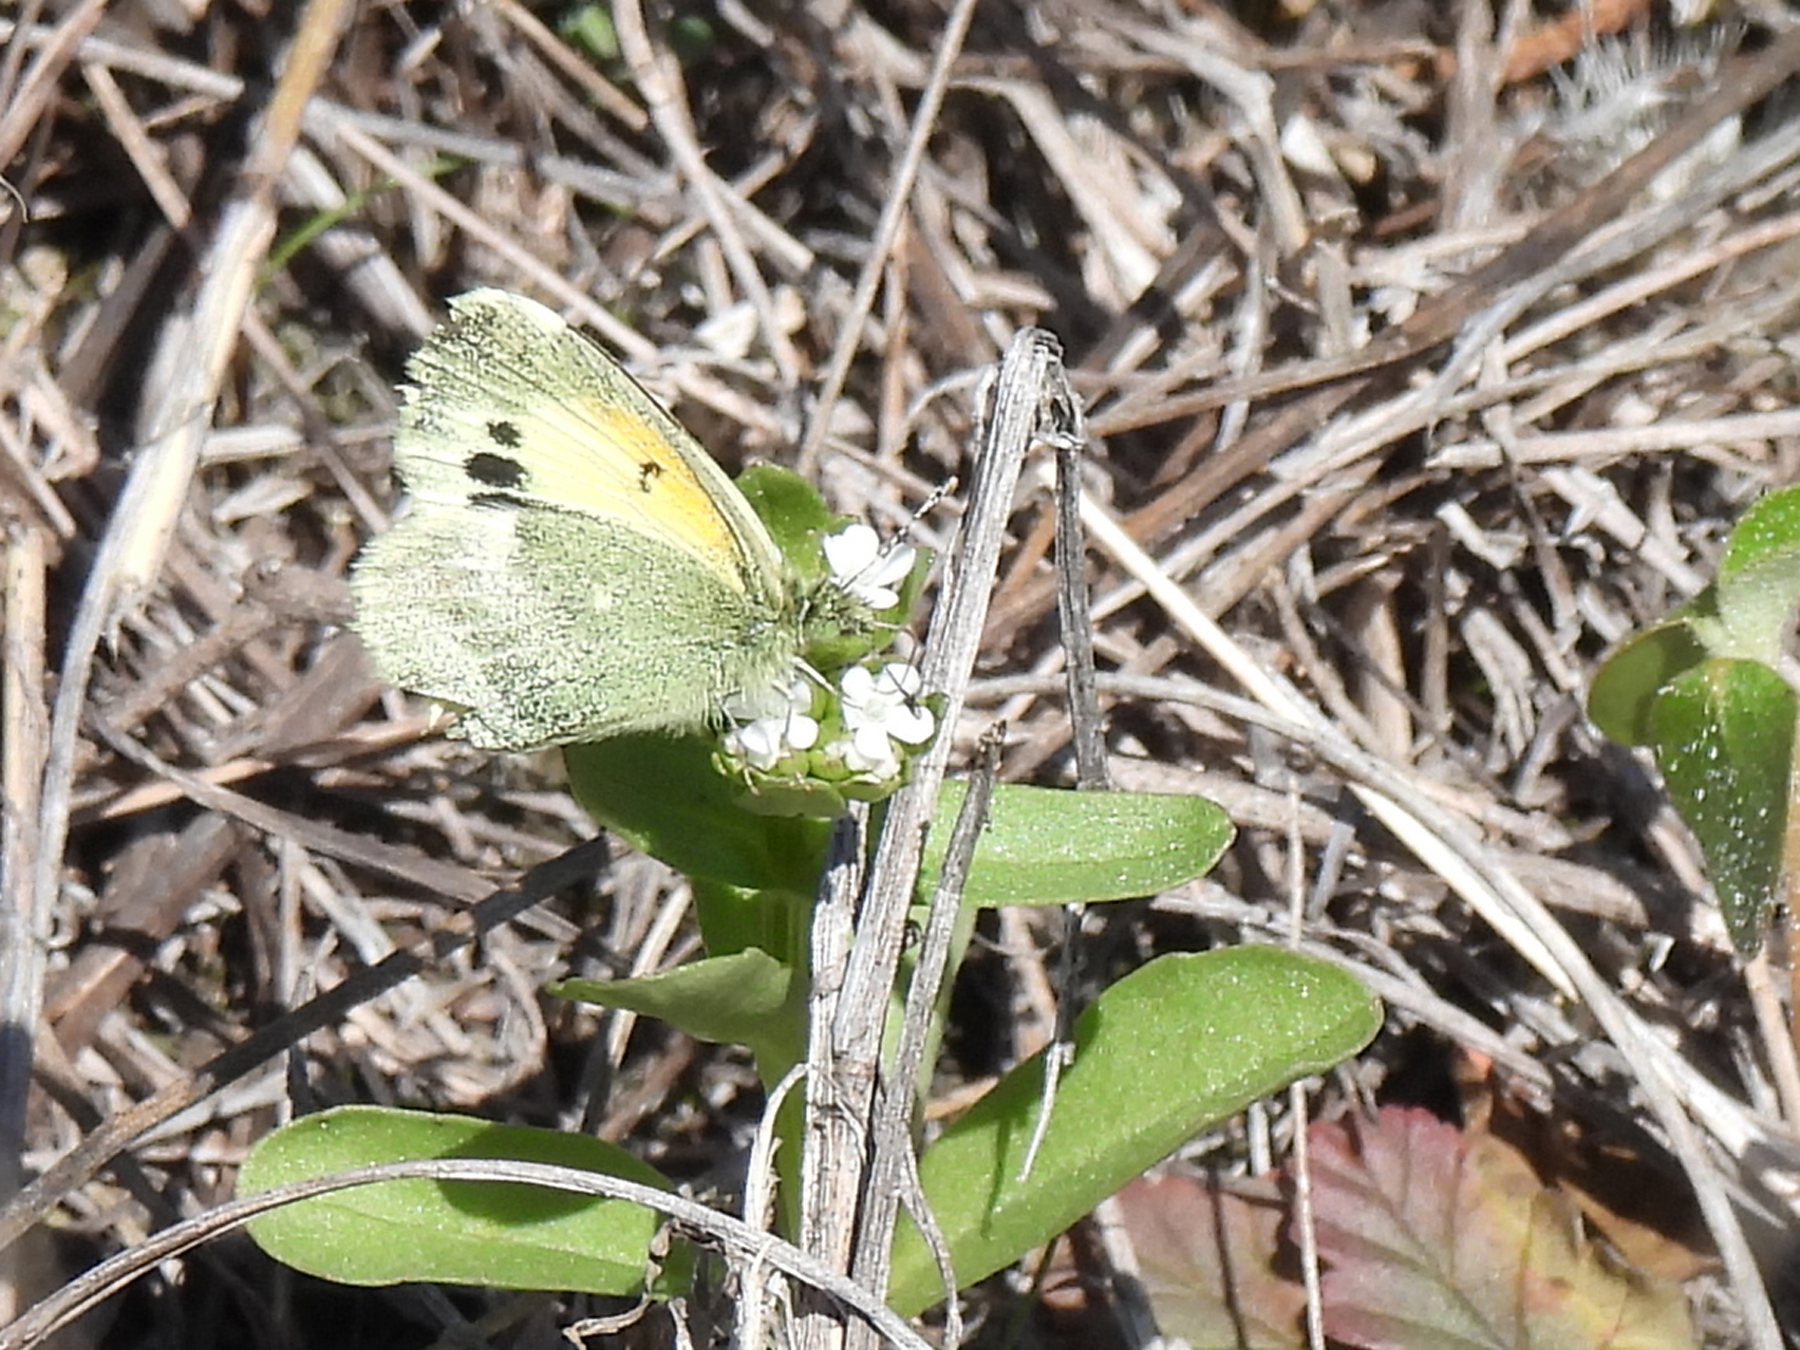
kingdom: Animalia
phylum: Arthropoda
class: Insecta
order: Lepidoptera
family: Pieridae
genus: Nathalis
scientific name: Nathalis iole
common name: Dainty sulphur
